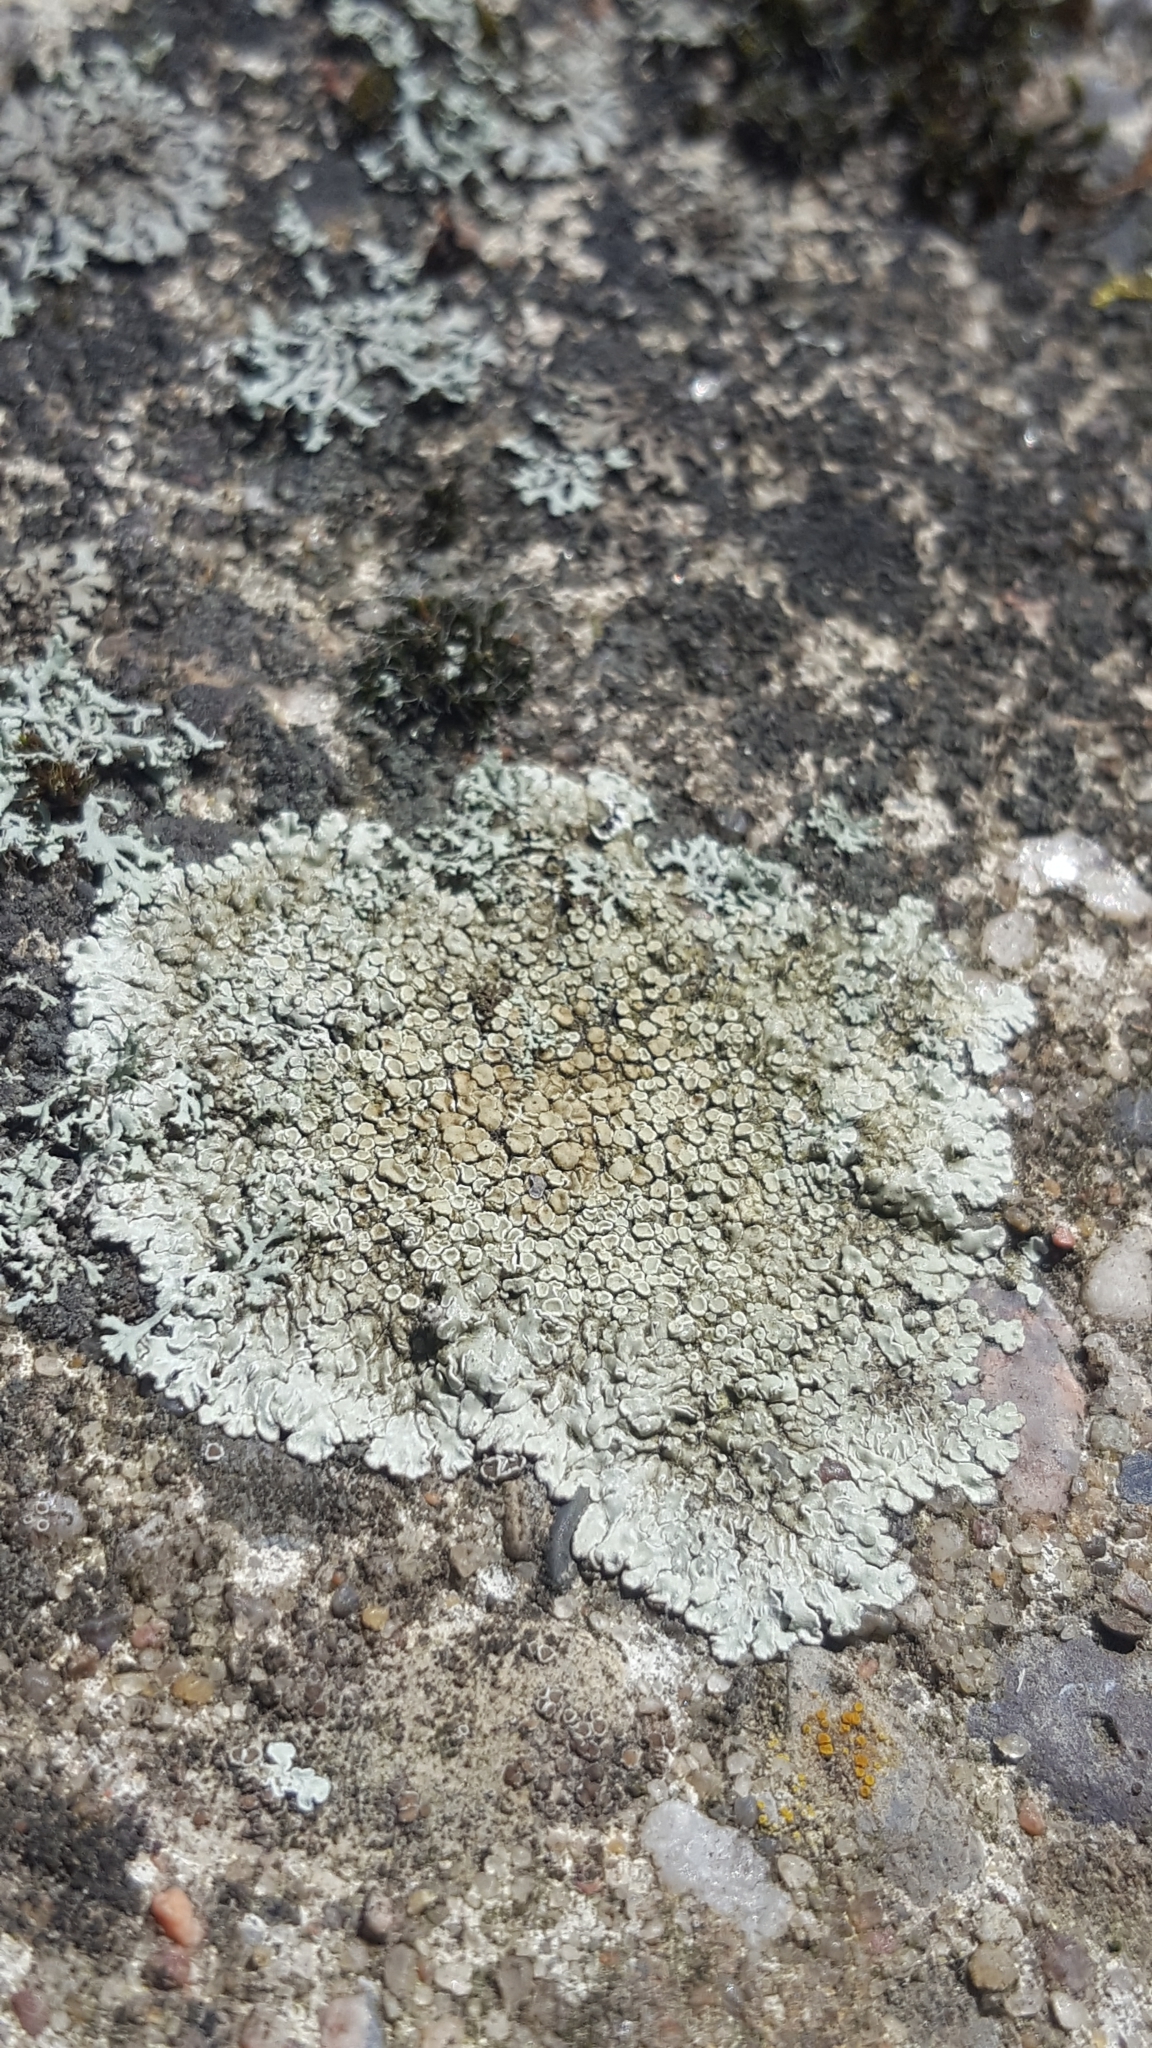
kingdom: Fungi
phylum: Ascomycota
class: Lecanoromycetes
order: Lecanorales
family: Lecanoraceae
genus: Protoparmeliopsis
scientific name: Protoparmeliopsis muralis
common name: Stonewall rim lichen
